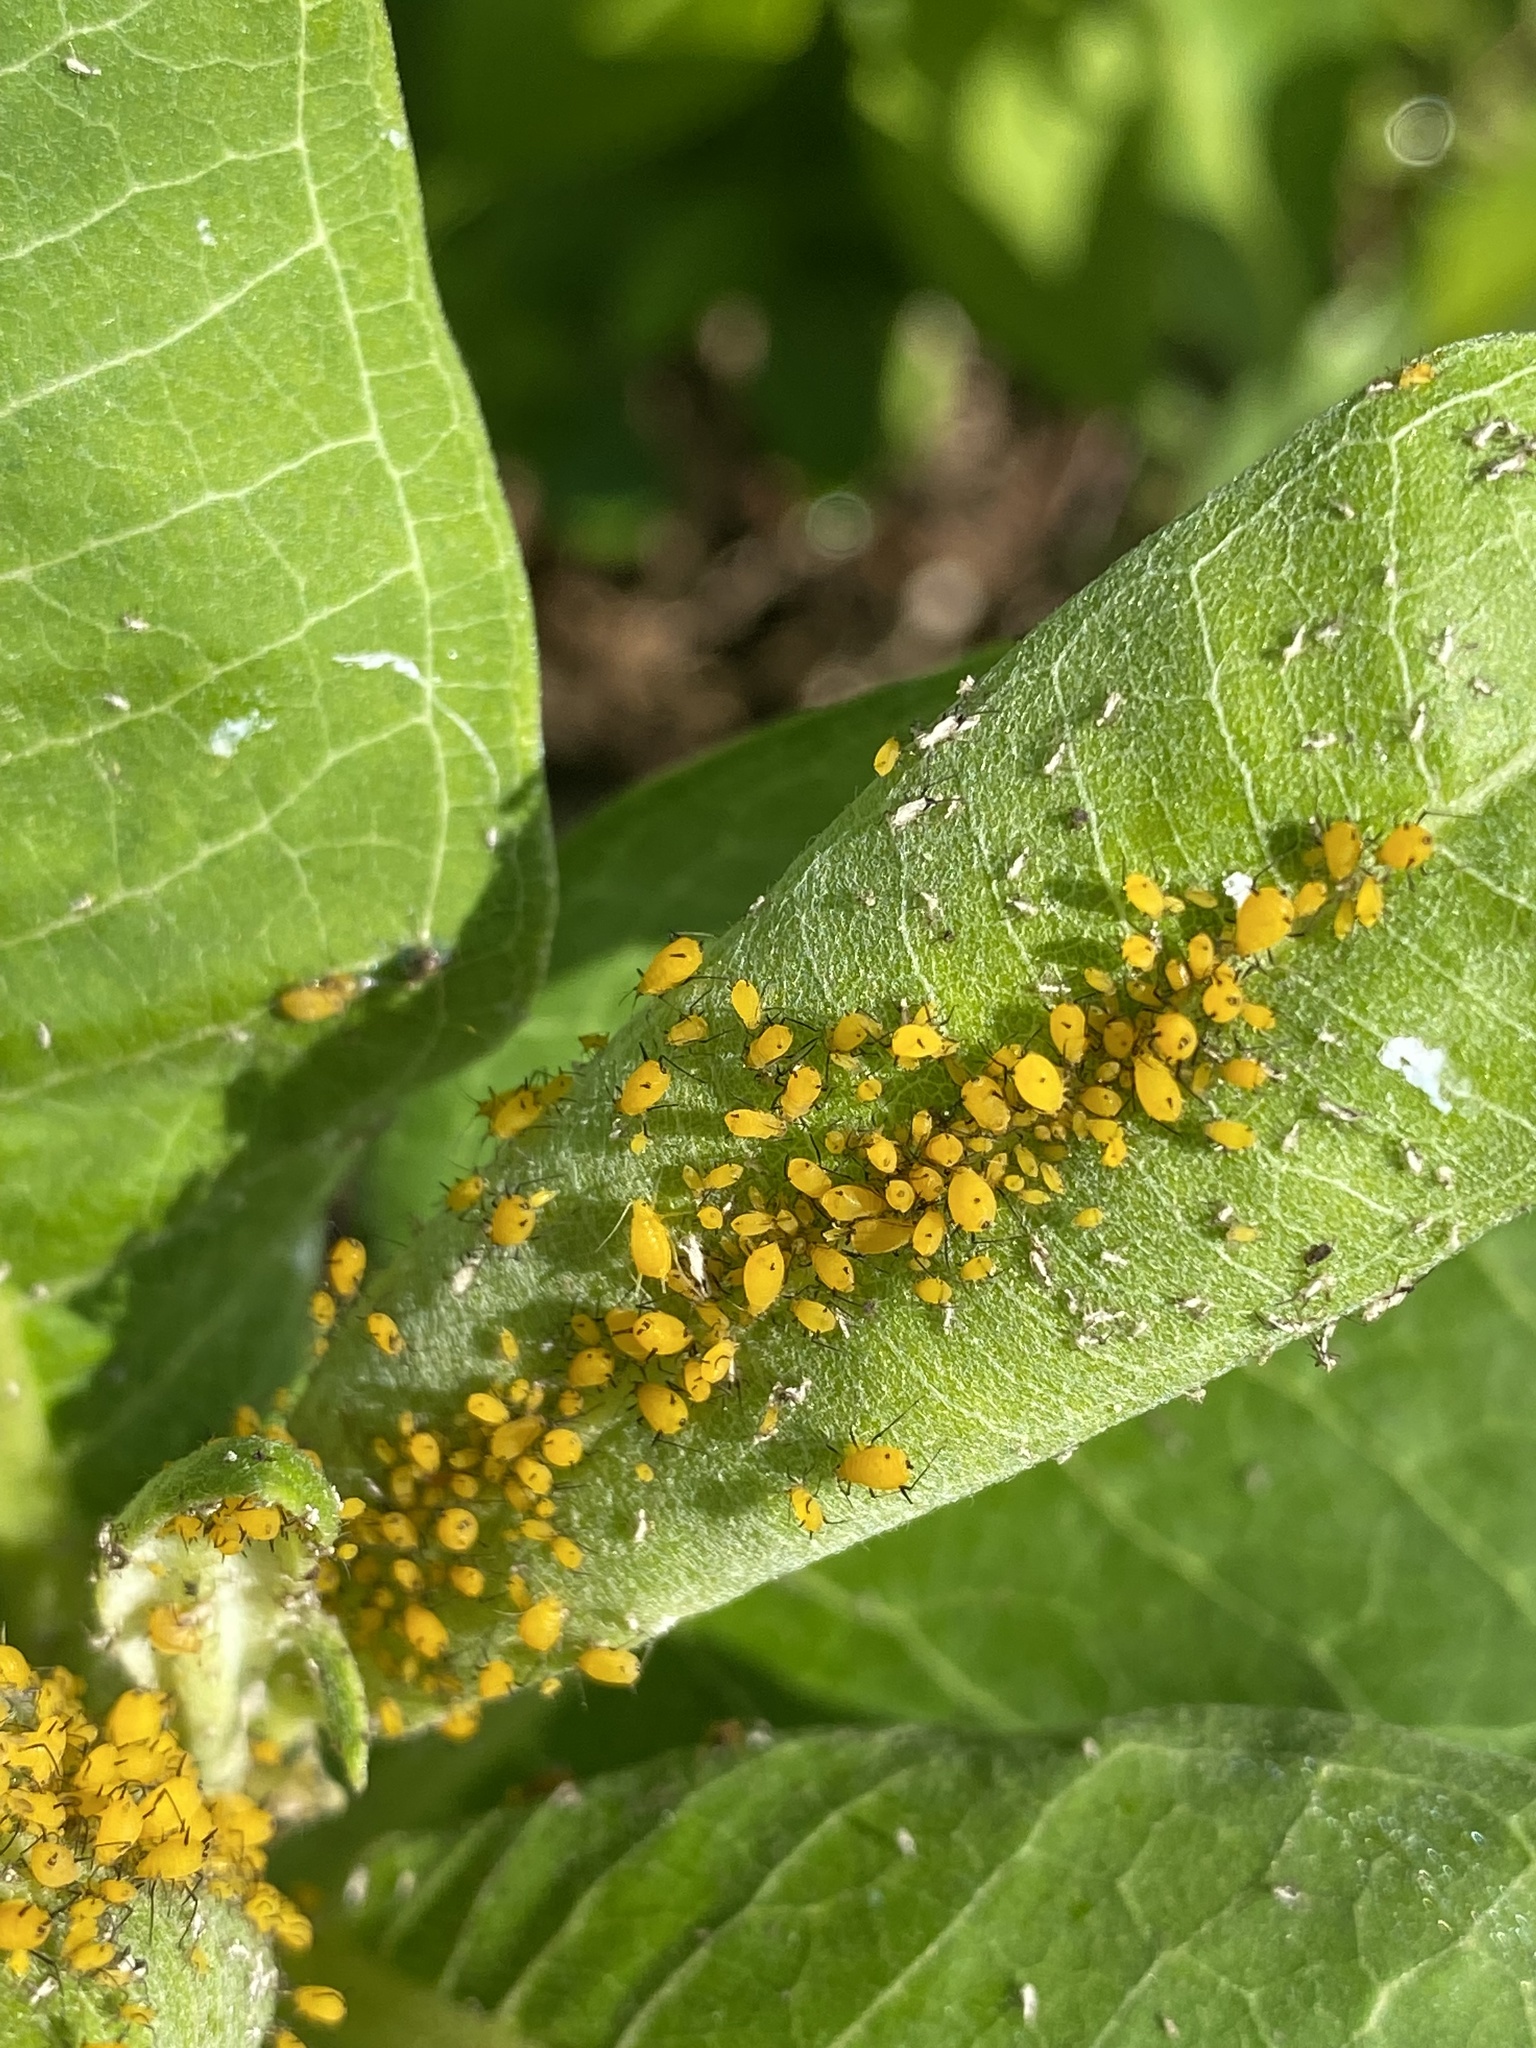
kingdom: Animalia
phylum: Arthropoda
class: Insecta
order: Hemiptera
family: Aphididae
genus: Aphis
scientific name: Aphis nerii
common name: Oleander aphid
